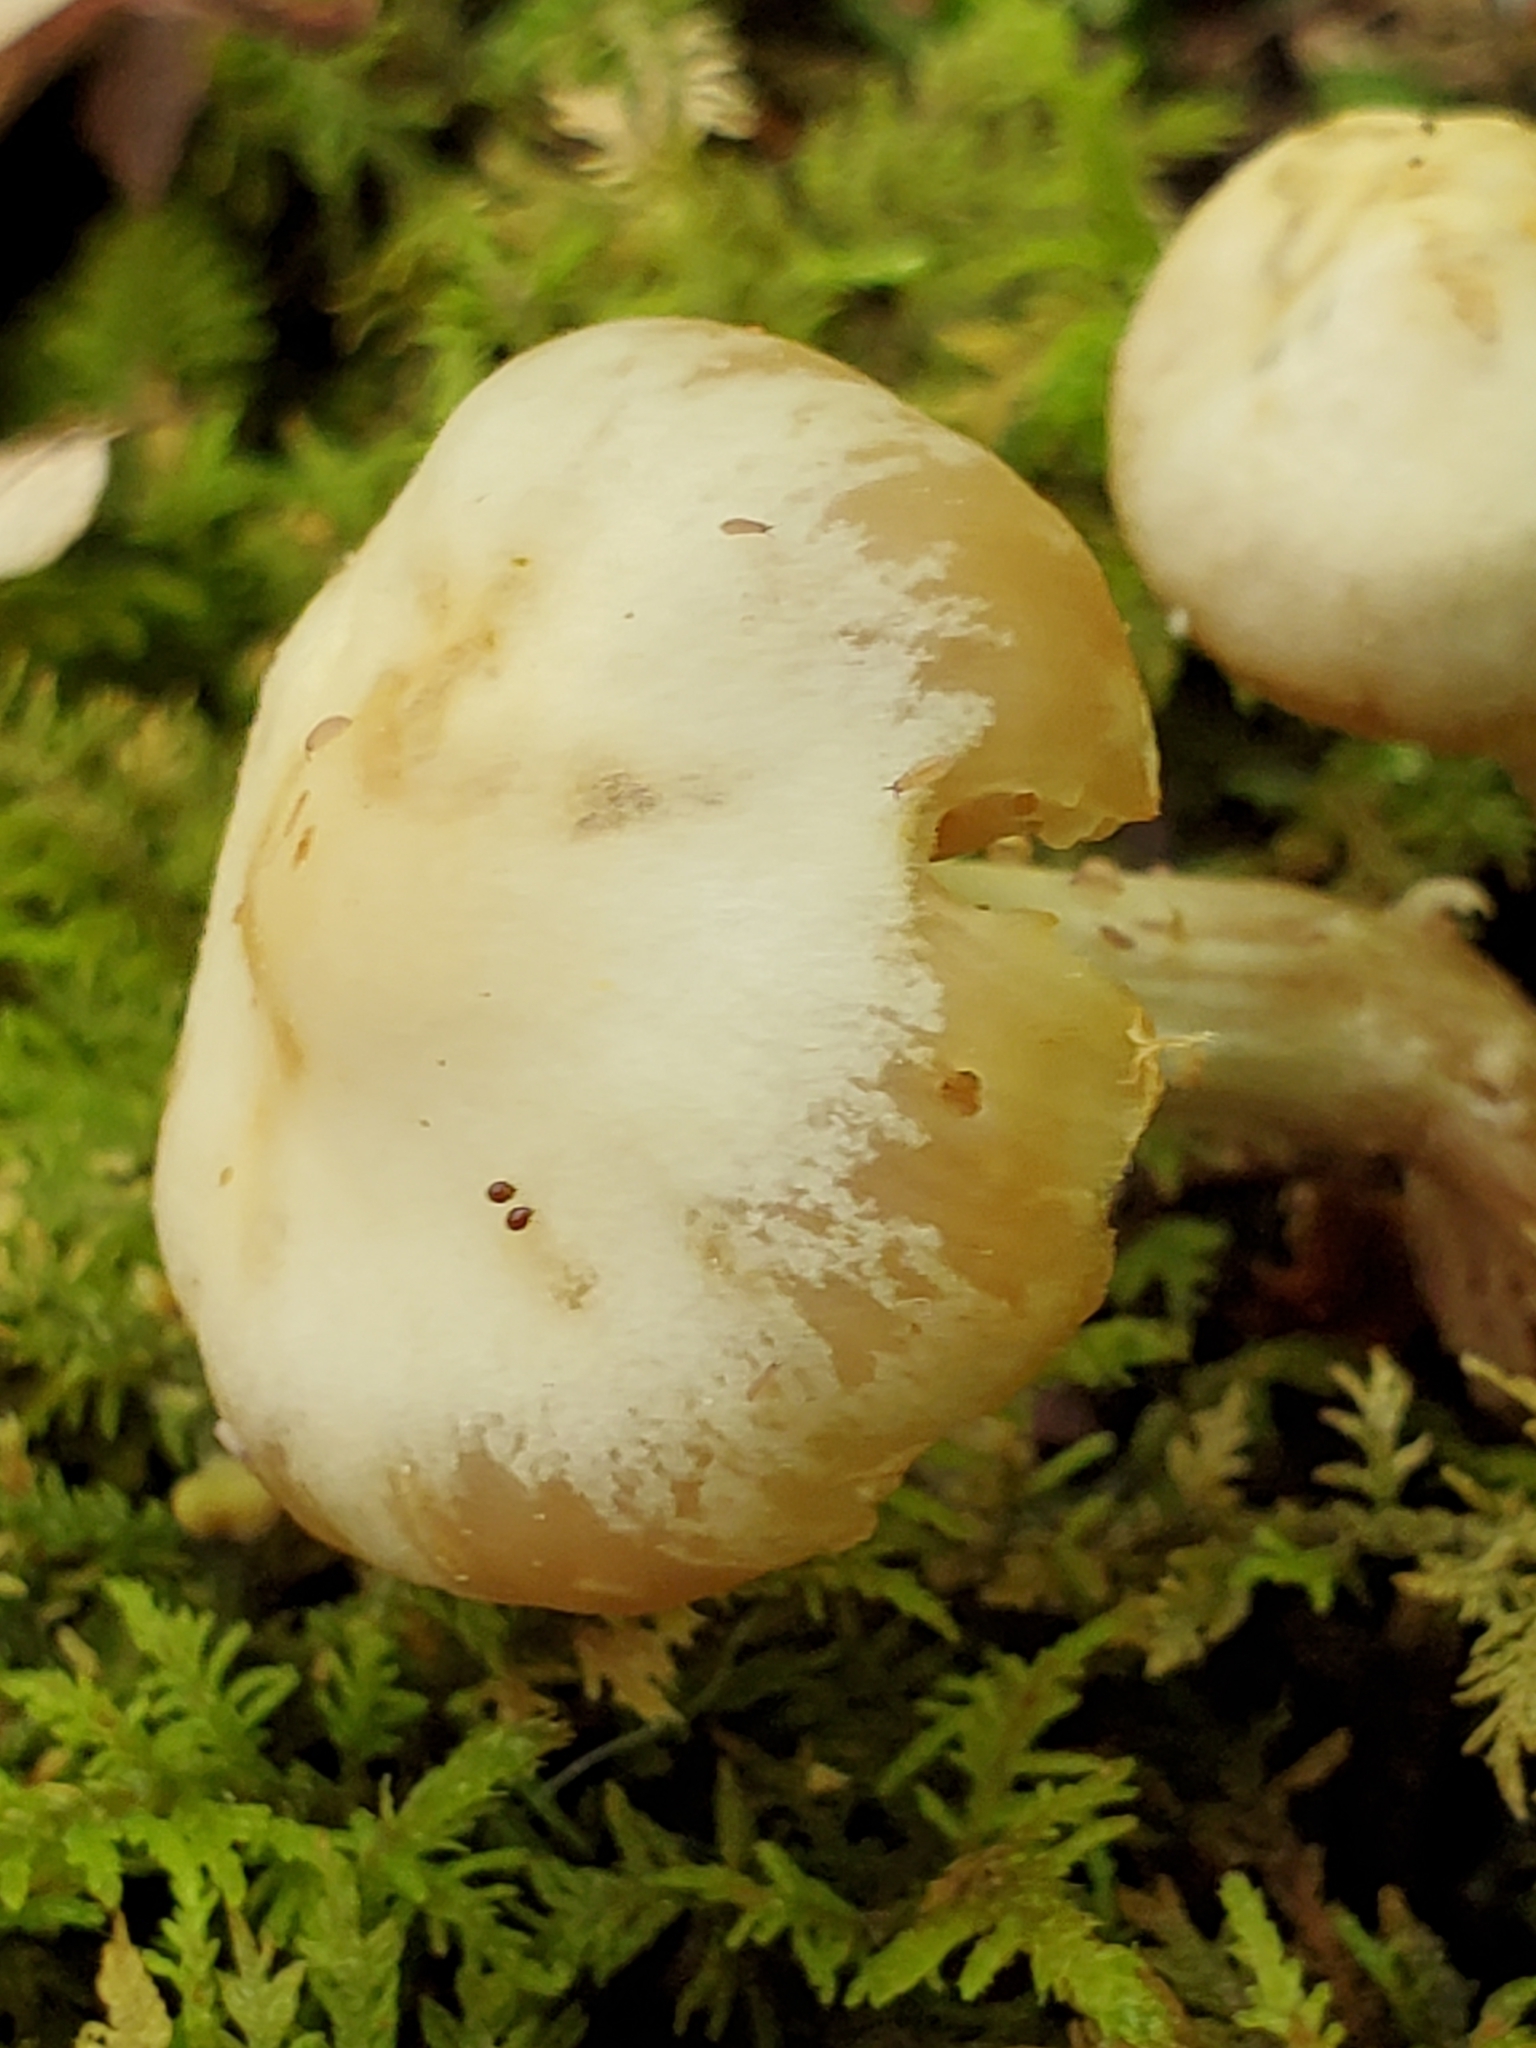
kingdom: Fungi
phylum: Basidiomycota
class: Agaricomycetes
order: Agaricales
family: Strophariaceae
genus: Kuehneromyces
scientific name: Kuehneromyces marginellus
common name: Sheathed woodtuft
